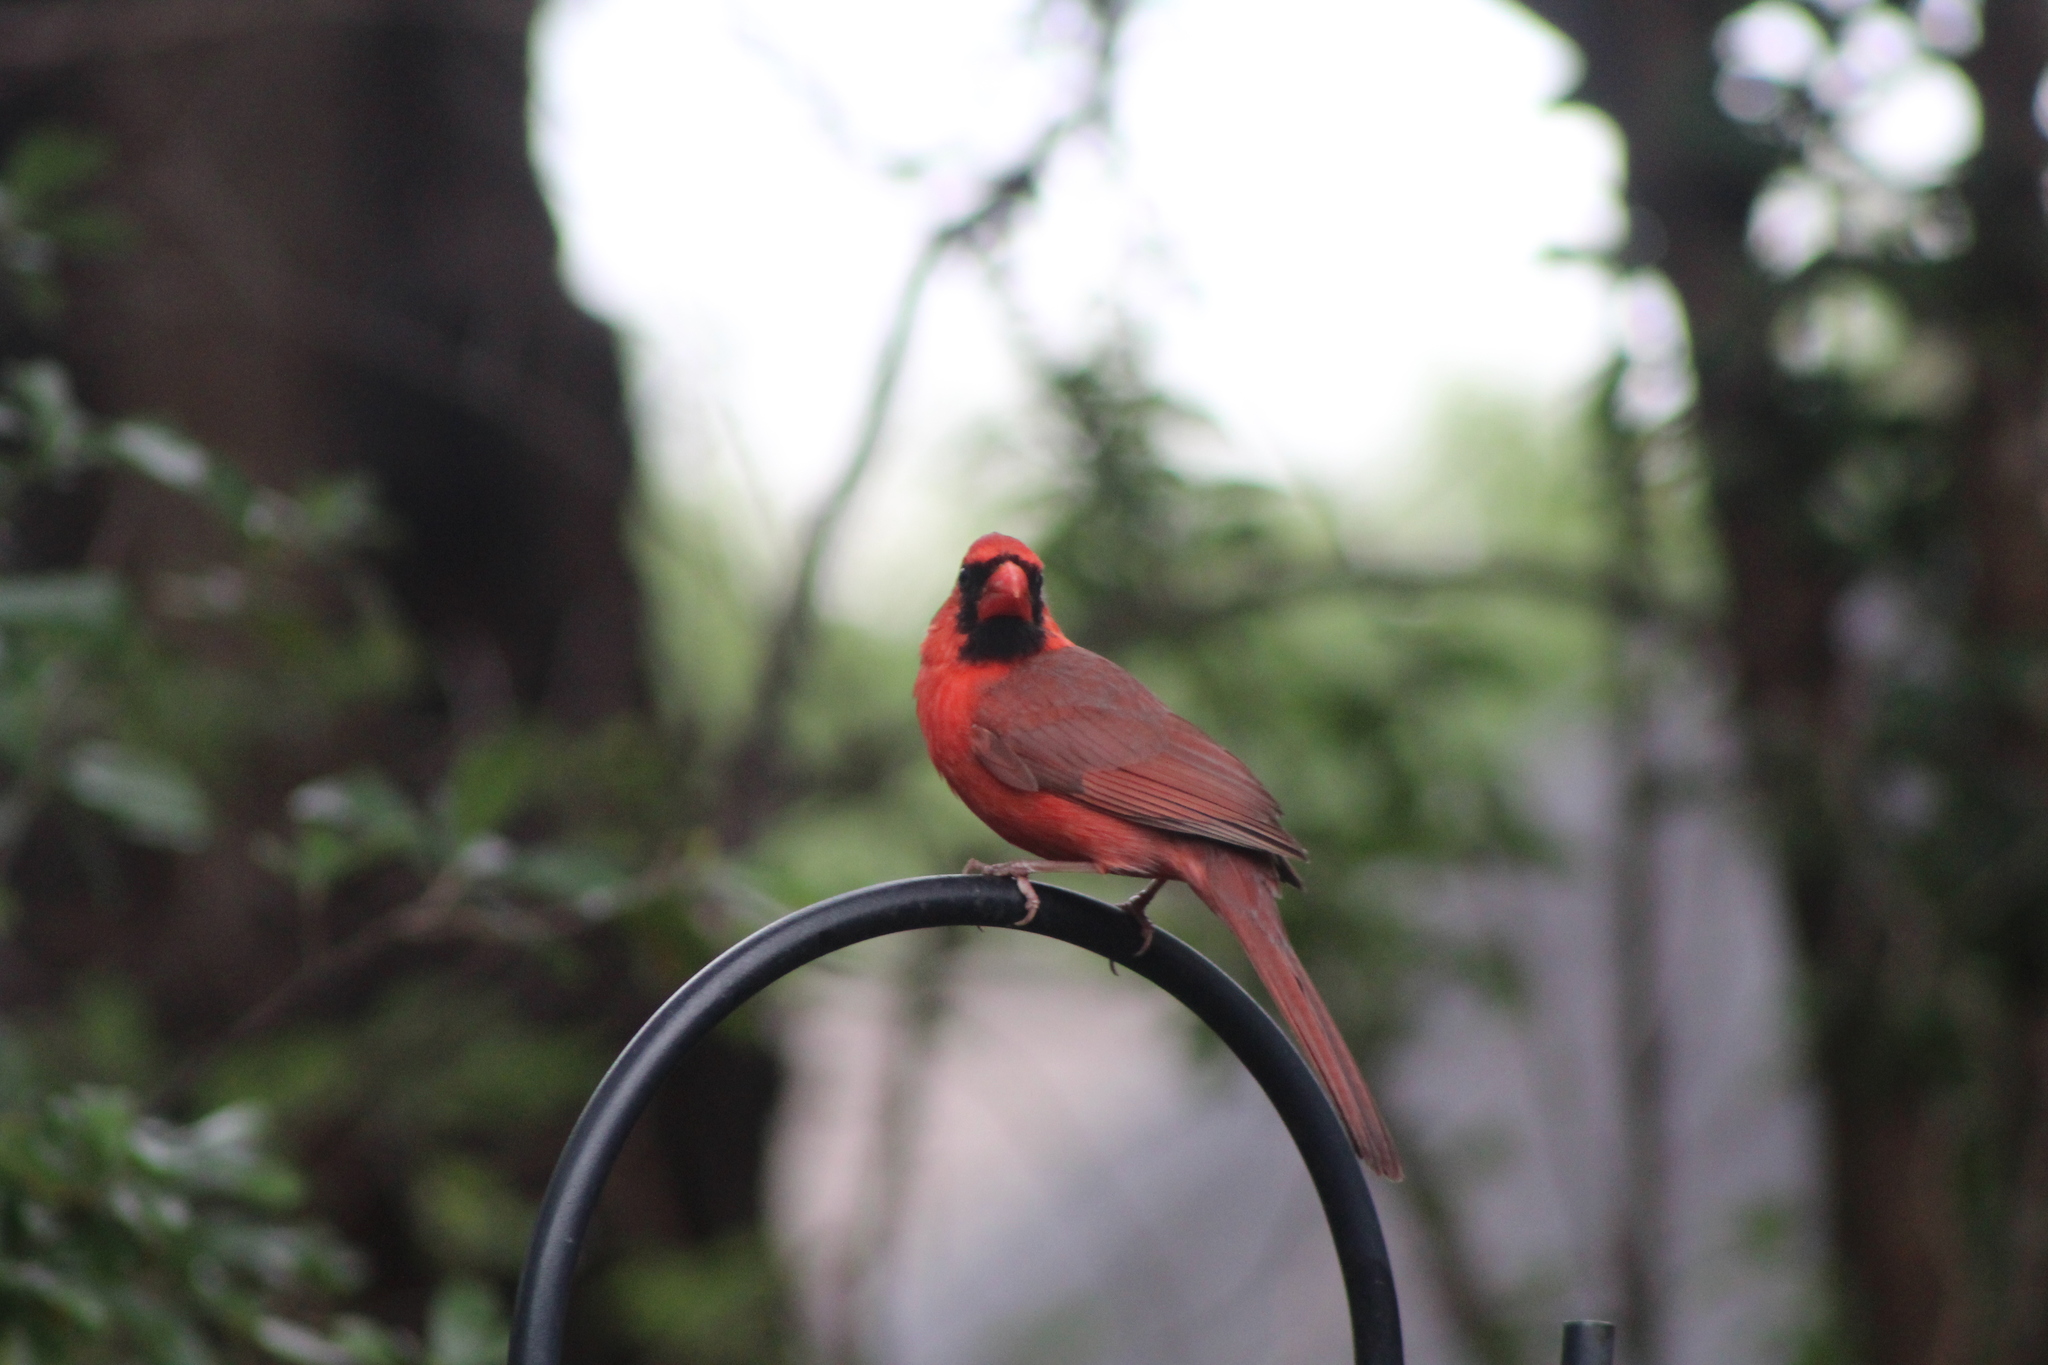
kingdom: Animalia
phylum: Chordata
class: Aves
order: Passeriformes
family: Cardinalidae
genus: Cardinalis
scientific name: Cardinalis cardinalis
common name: Northern cardinal
